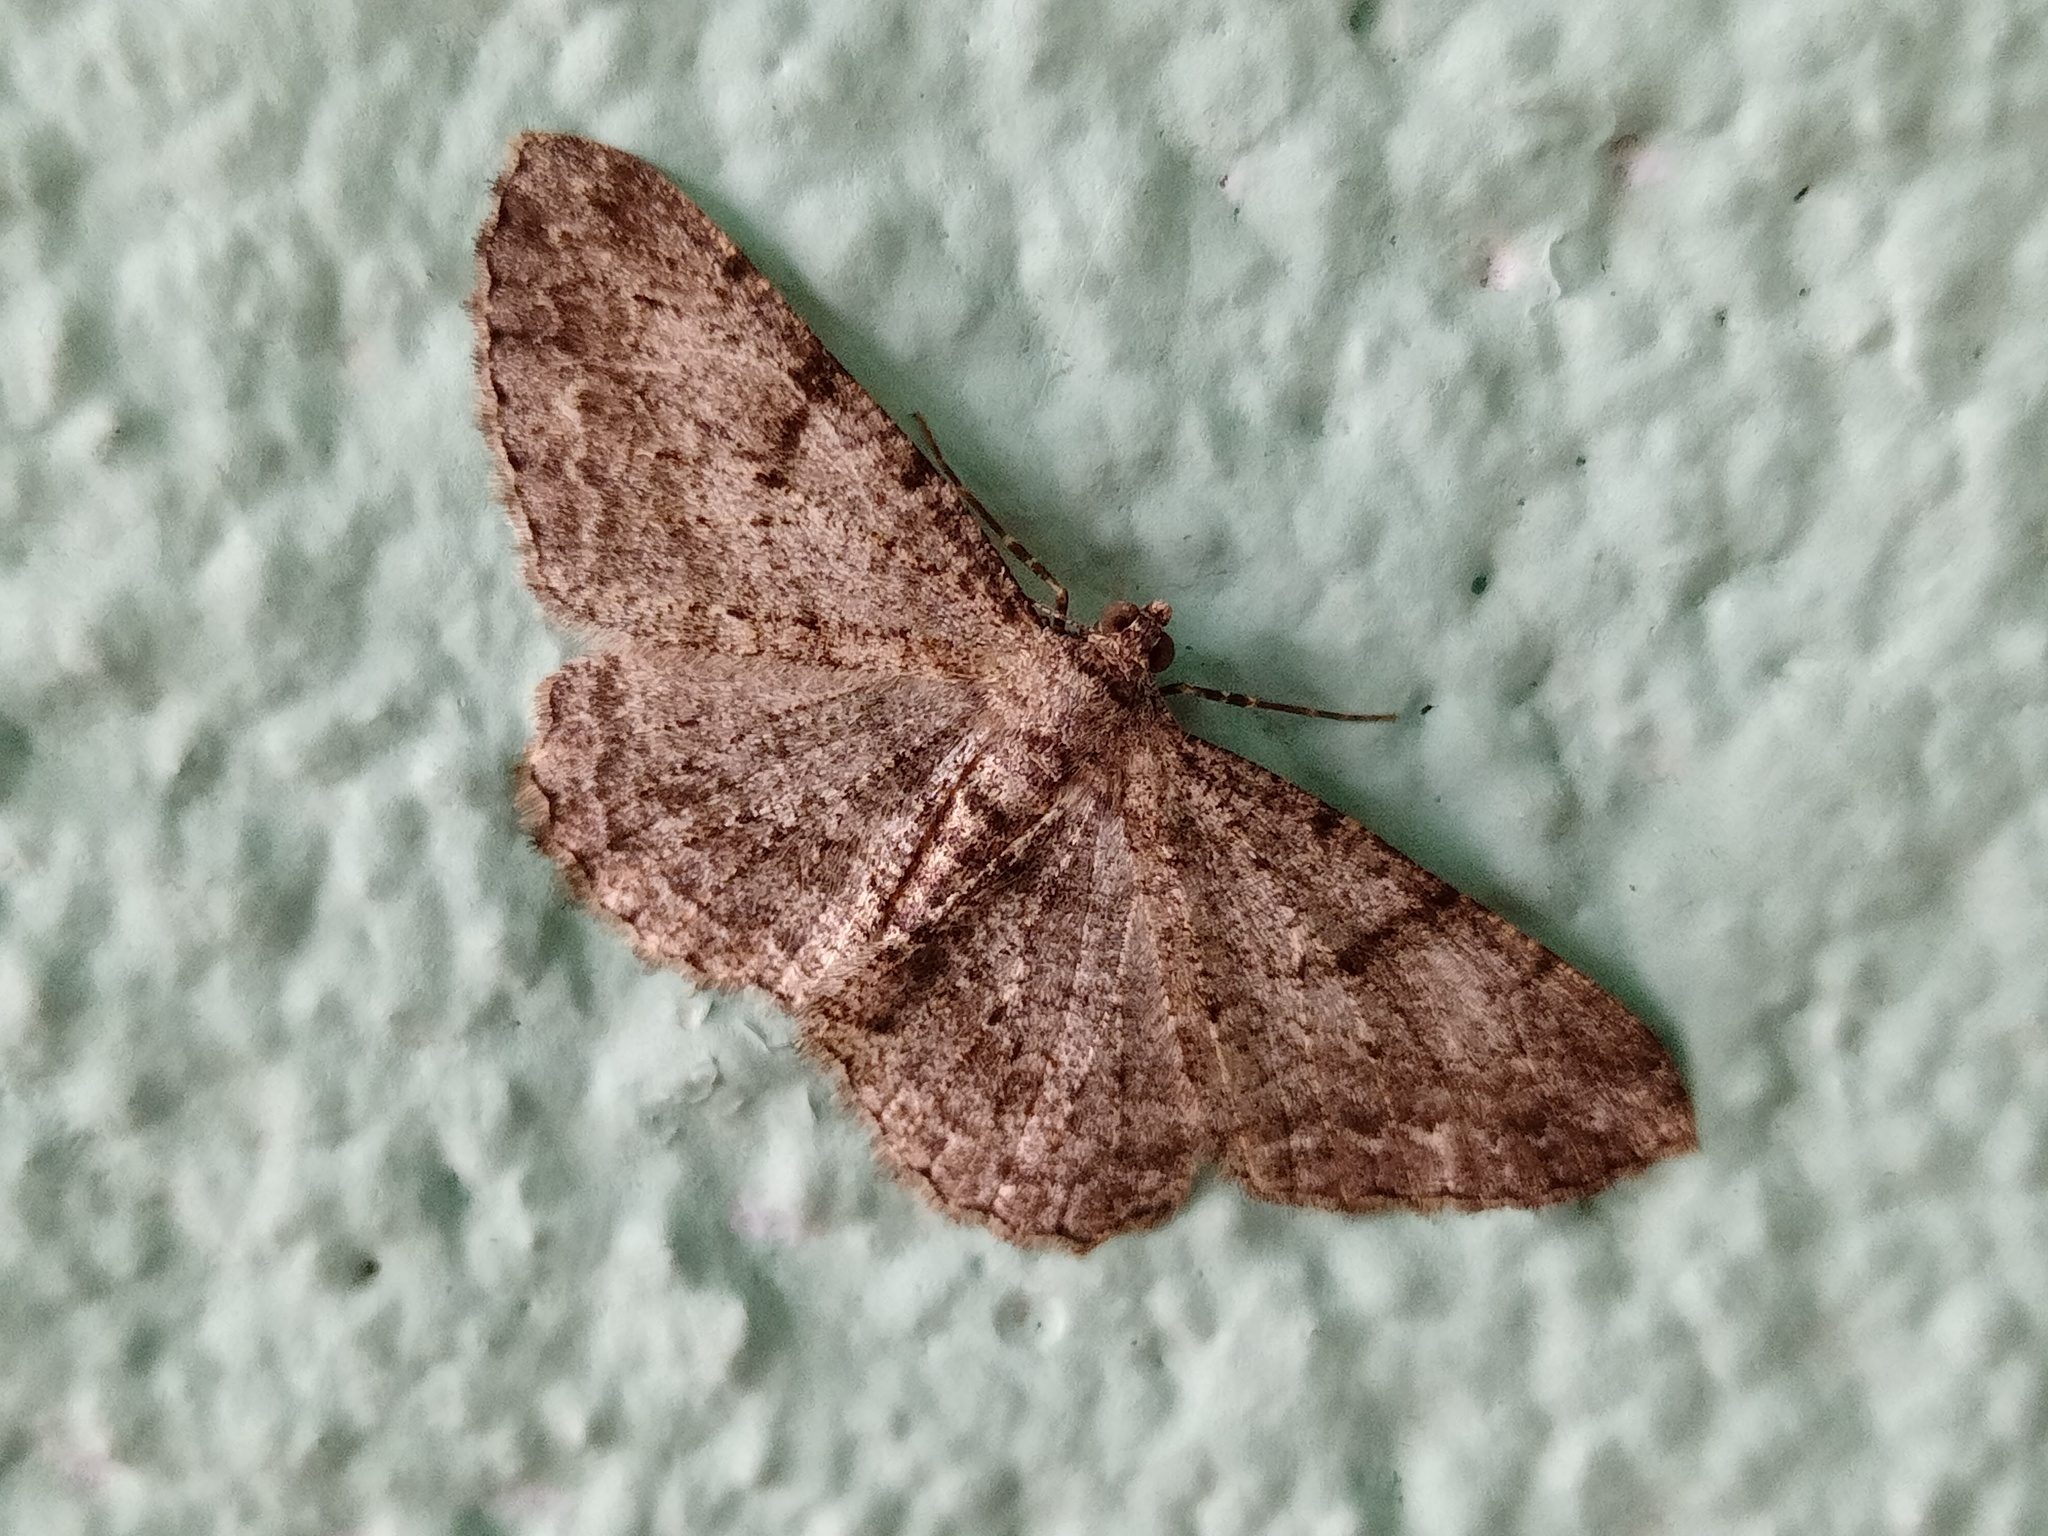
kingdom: Animalia
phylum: Arthropoda
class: Insecta
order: Lepidoptera
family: Geometridae
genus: Peribatodes
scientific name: Peribatodes rhomboidaria
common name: Willow beauty
